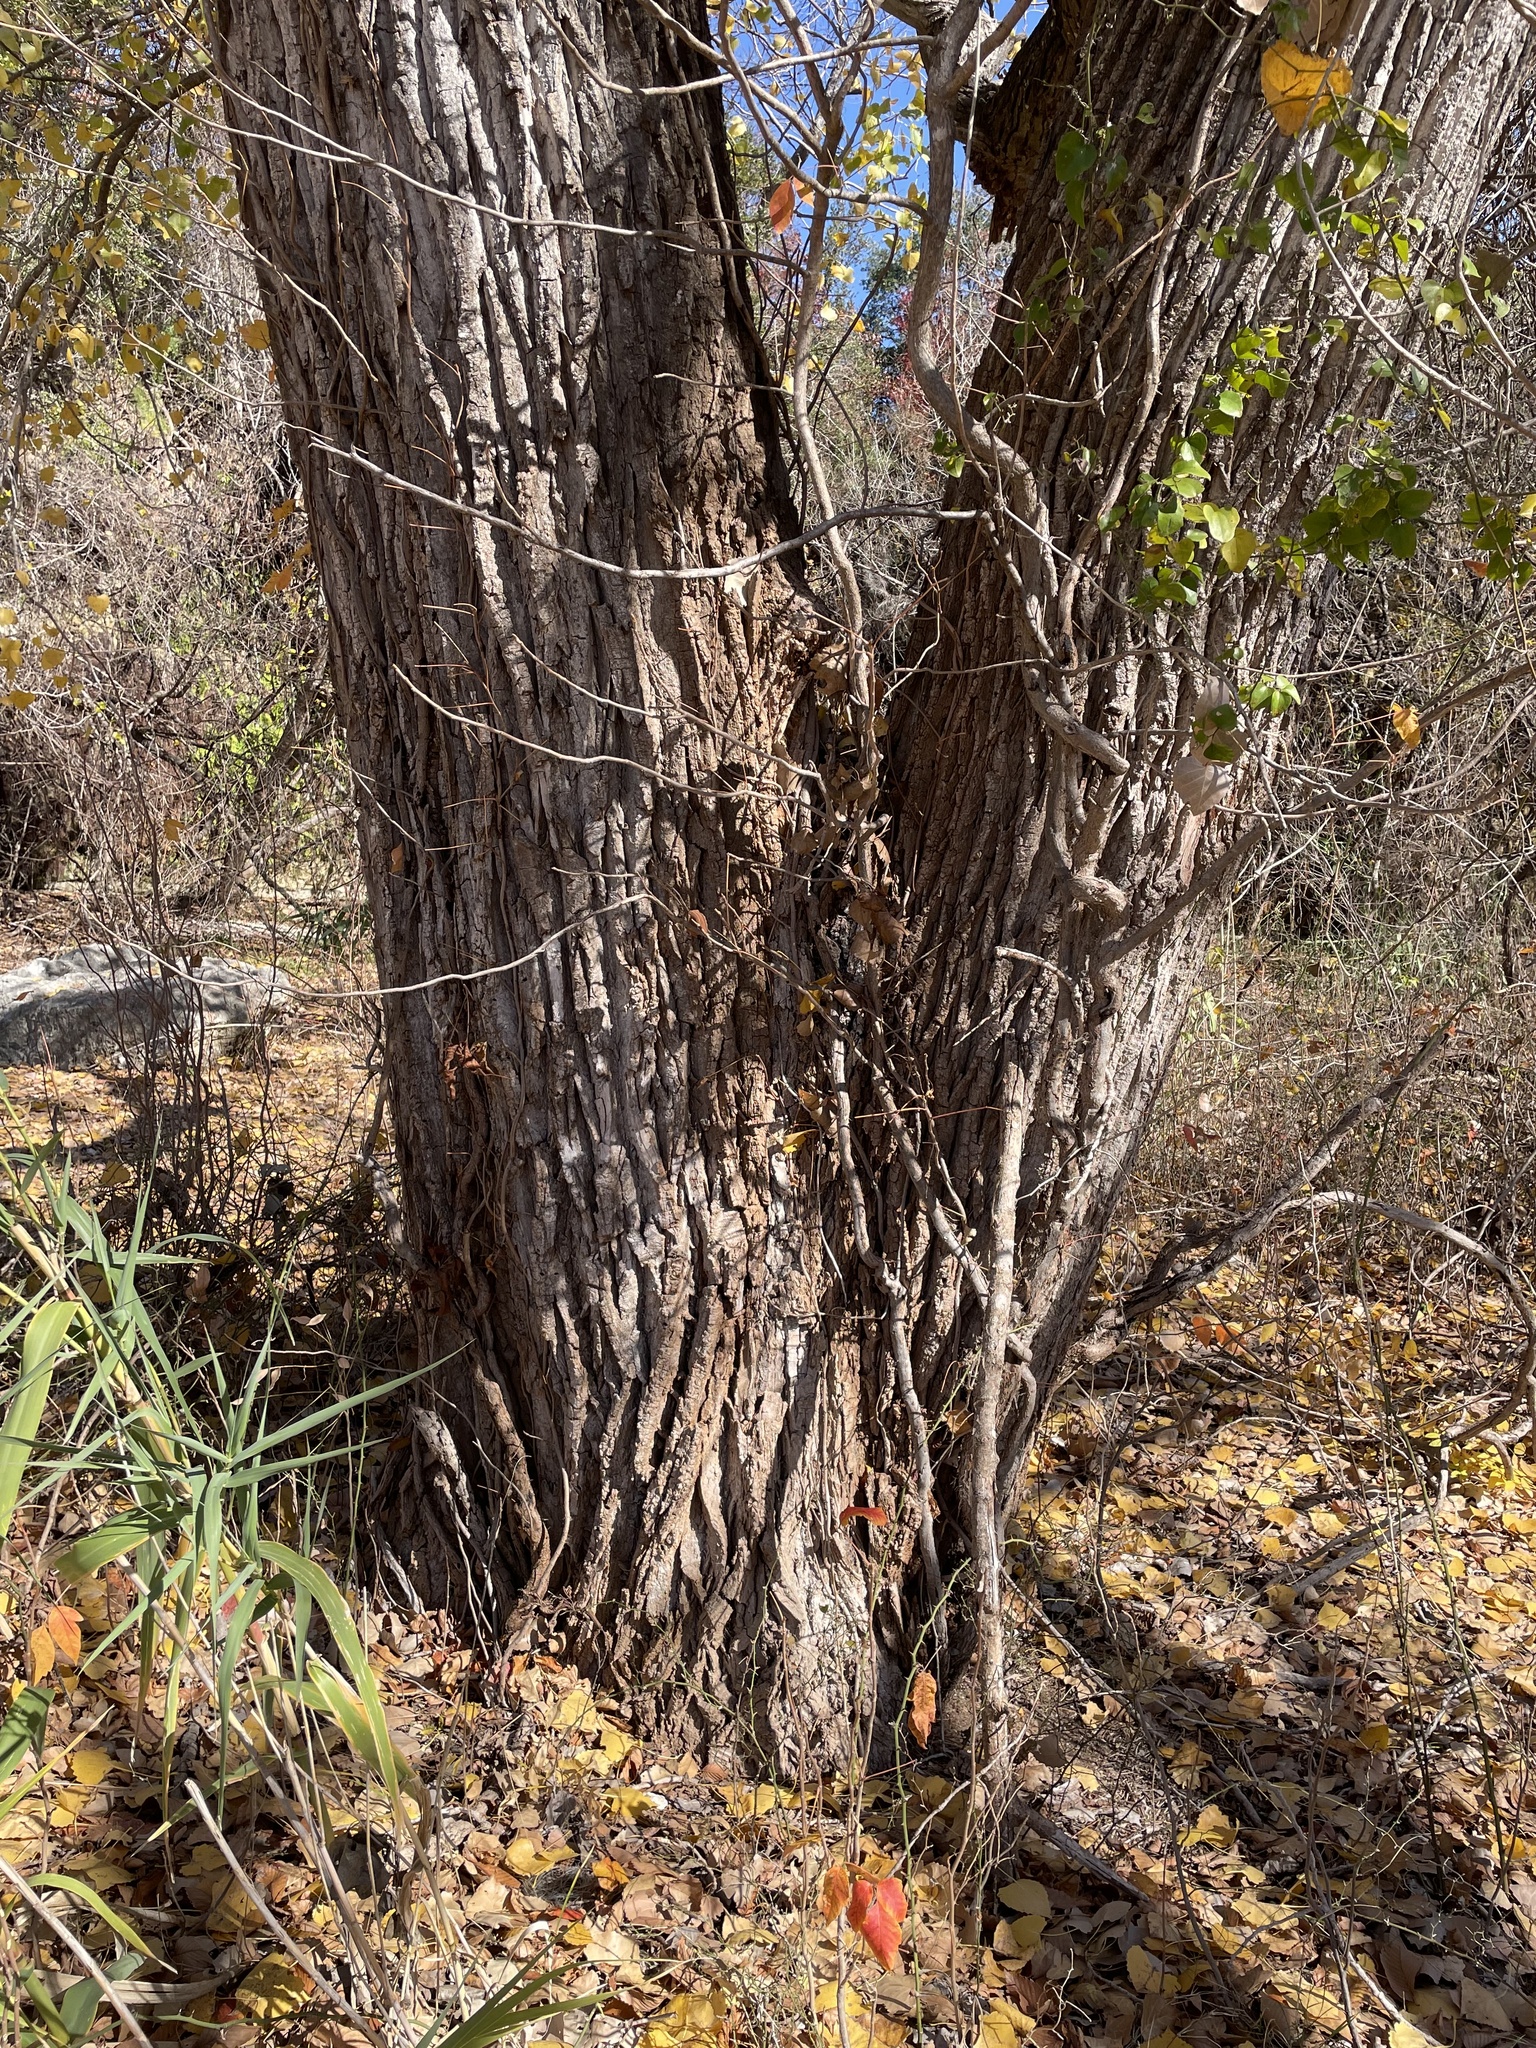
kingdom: Plantae
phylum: Tracheophyta
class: Magnoliopsida
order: Malpighiales
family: Salicaceae
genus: Populus
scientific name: Populus deltoides
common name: Eastern cottonwood
